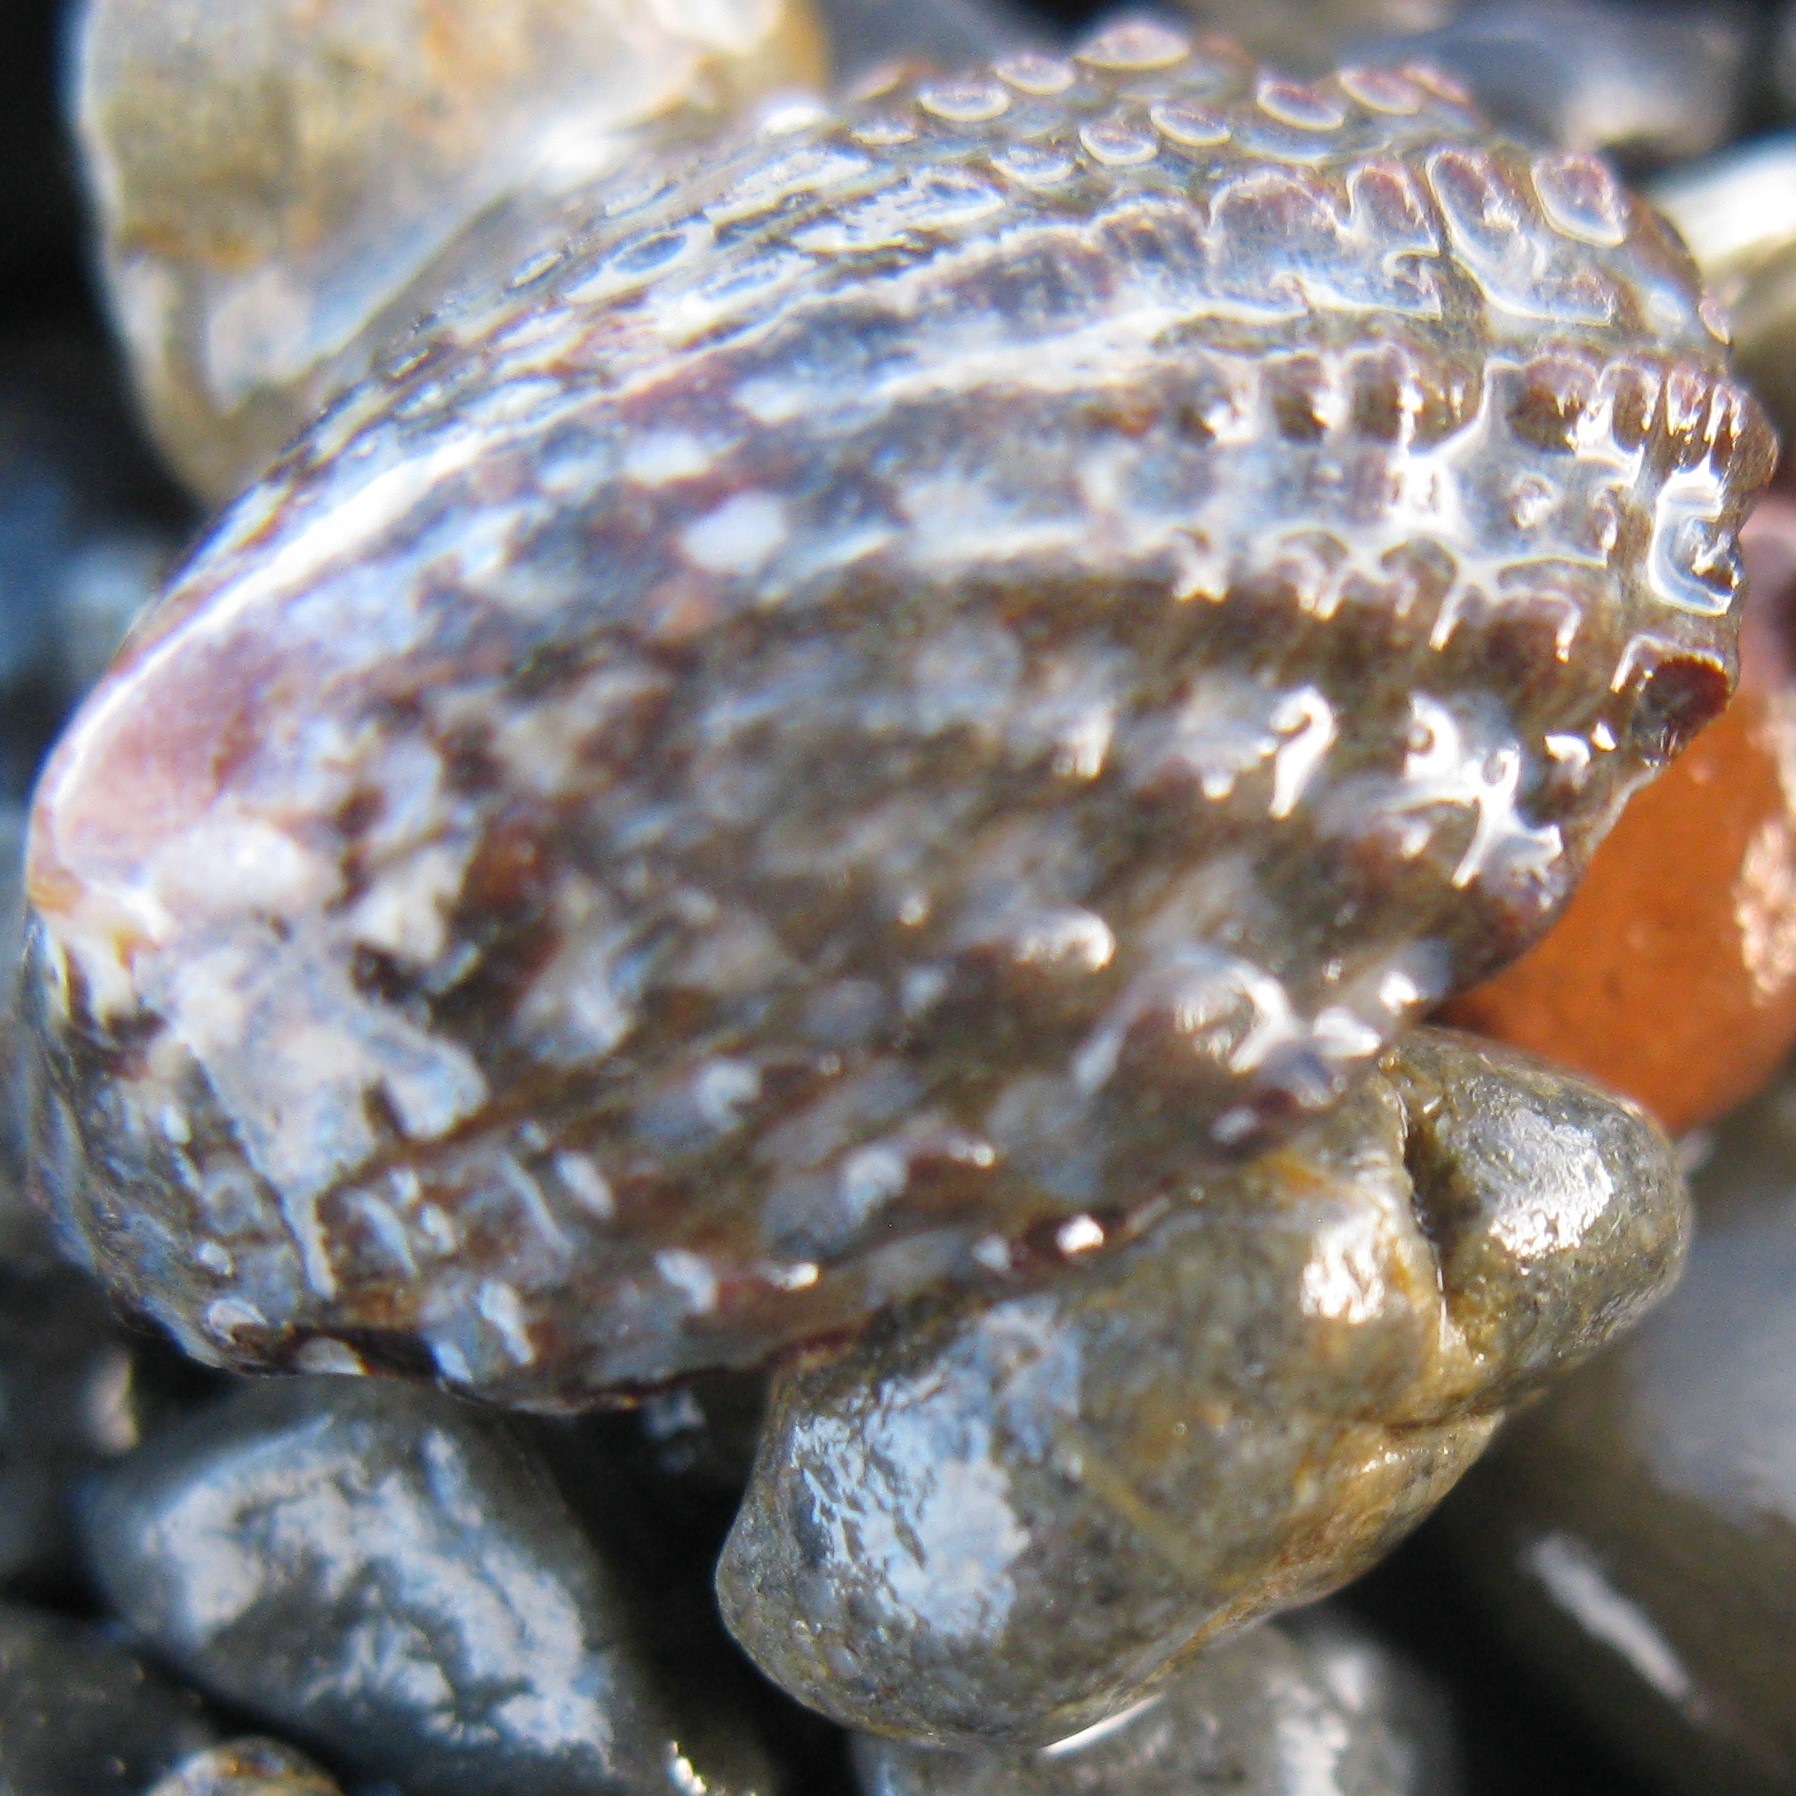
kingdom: Animalia
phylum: Mollusca
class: Gastropoda
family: Nacellidae
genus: Cellana
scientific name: Cellana denticulata
